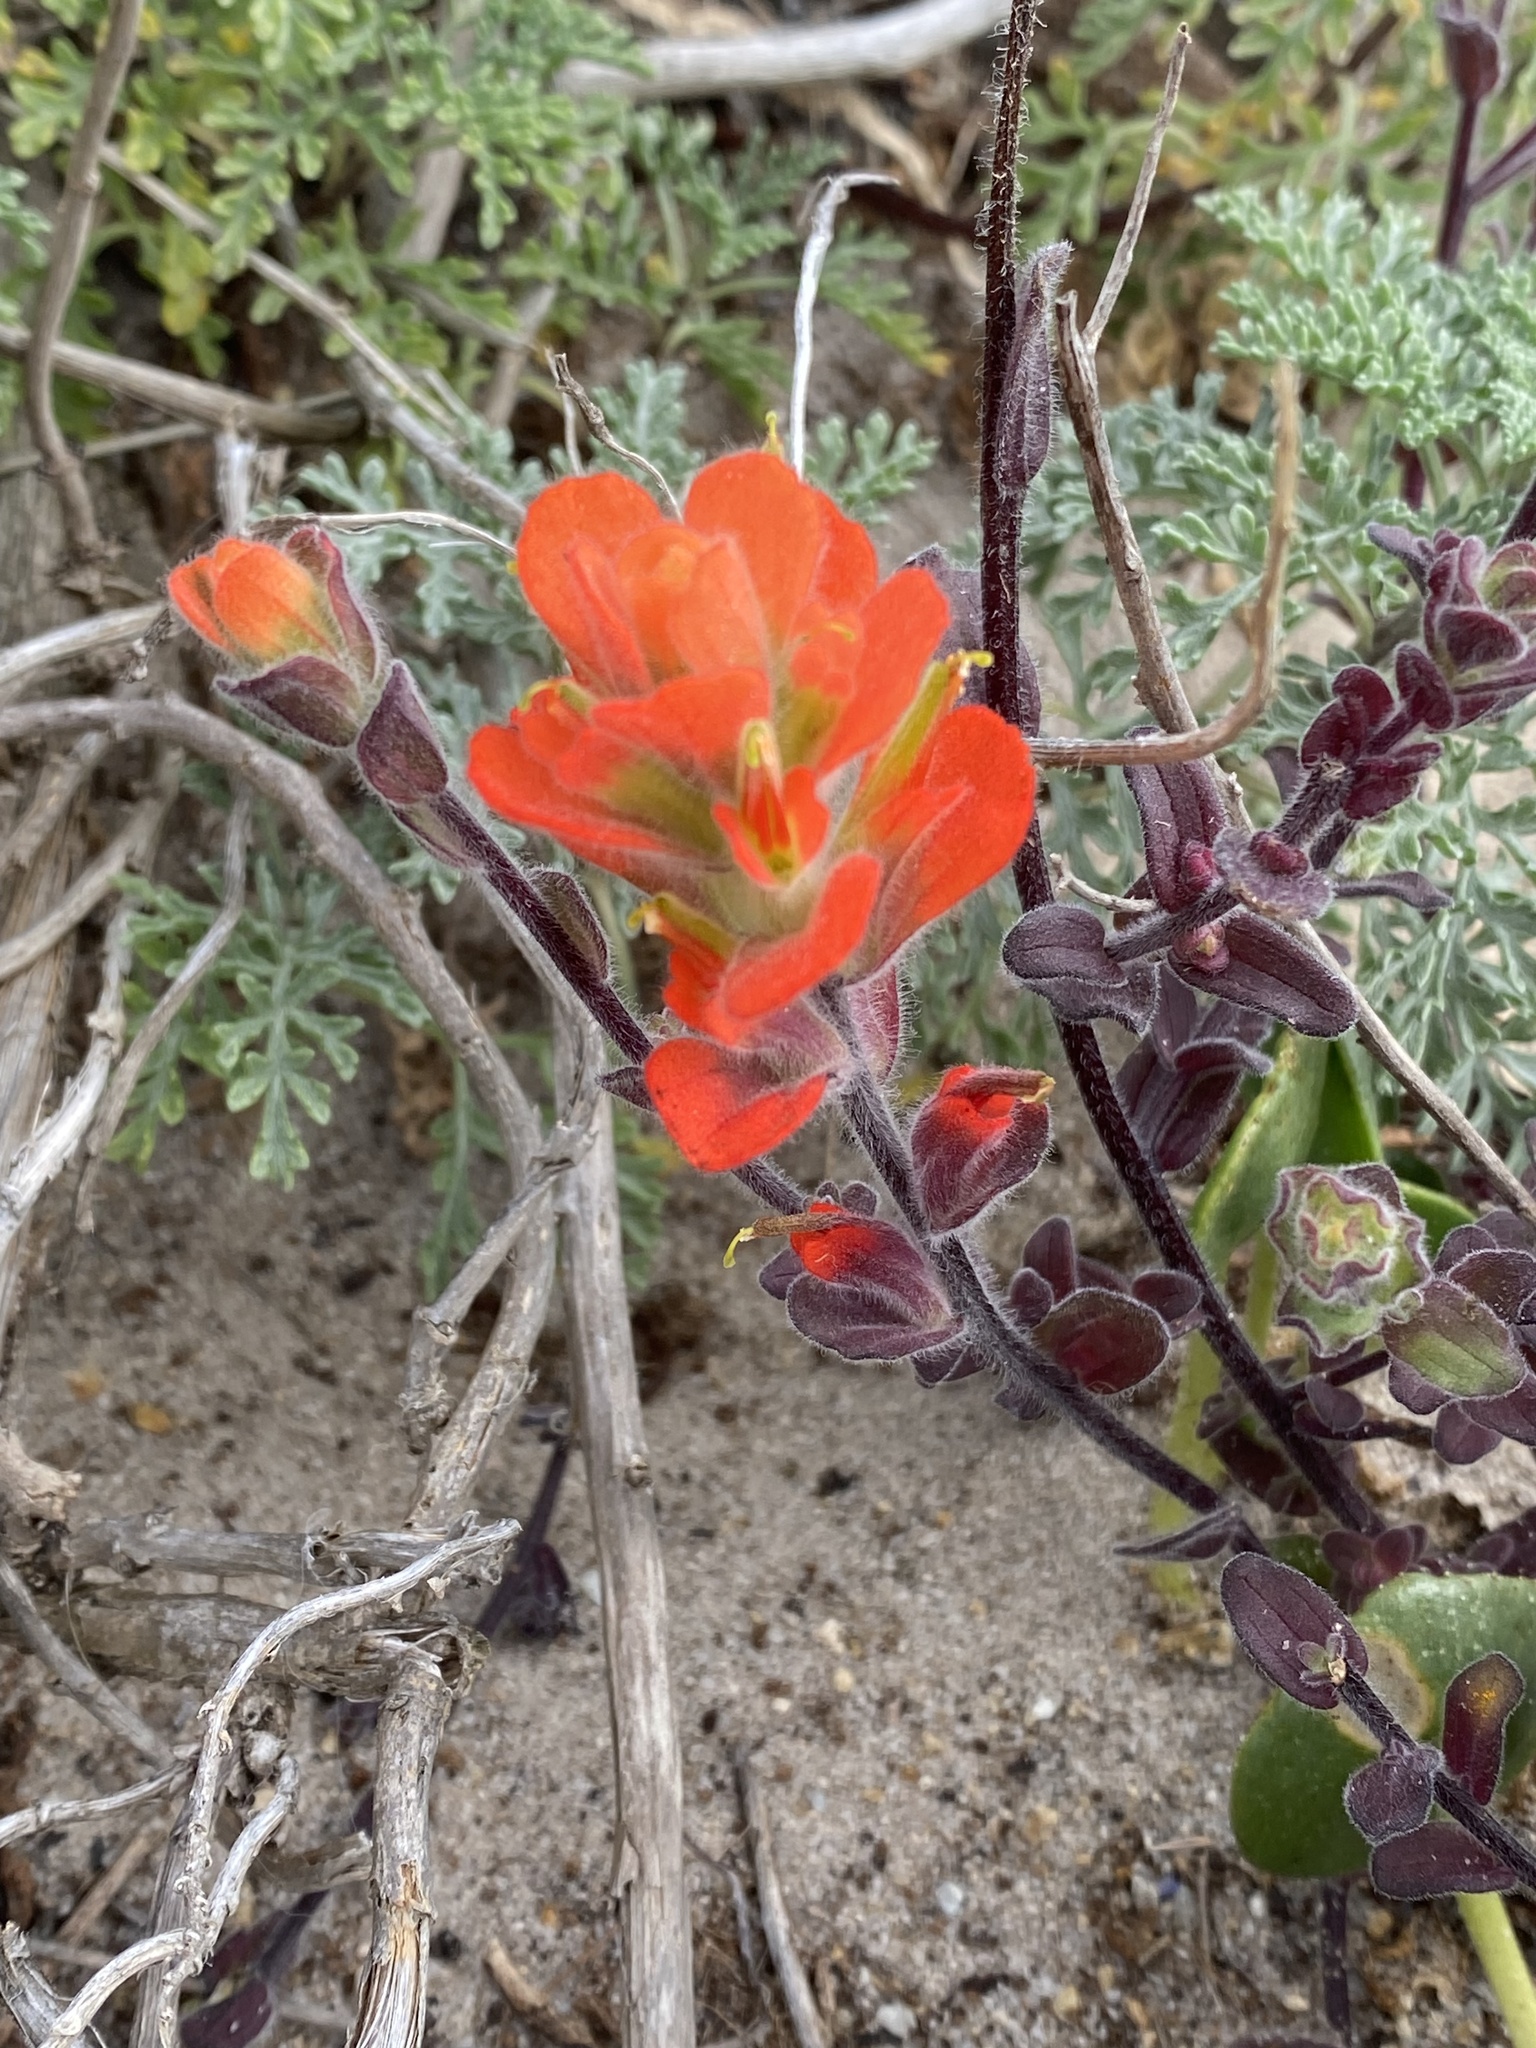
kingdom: Plantae
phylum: Tracheophyta
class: Magnoliopsida
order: Lamiales
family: Orobanchaceae
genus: Castilleja
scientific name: Castilleja latifolia
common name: Monterey indian paintbrush
